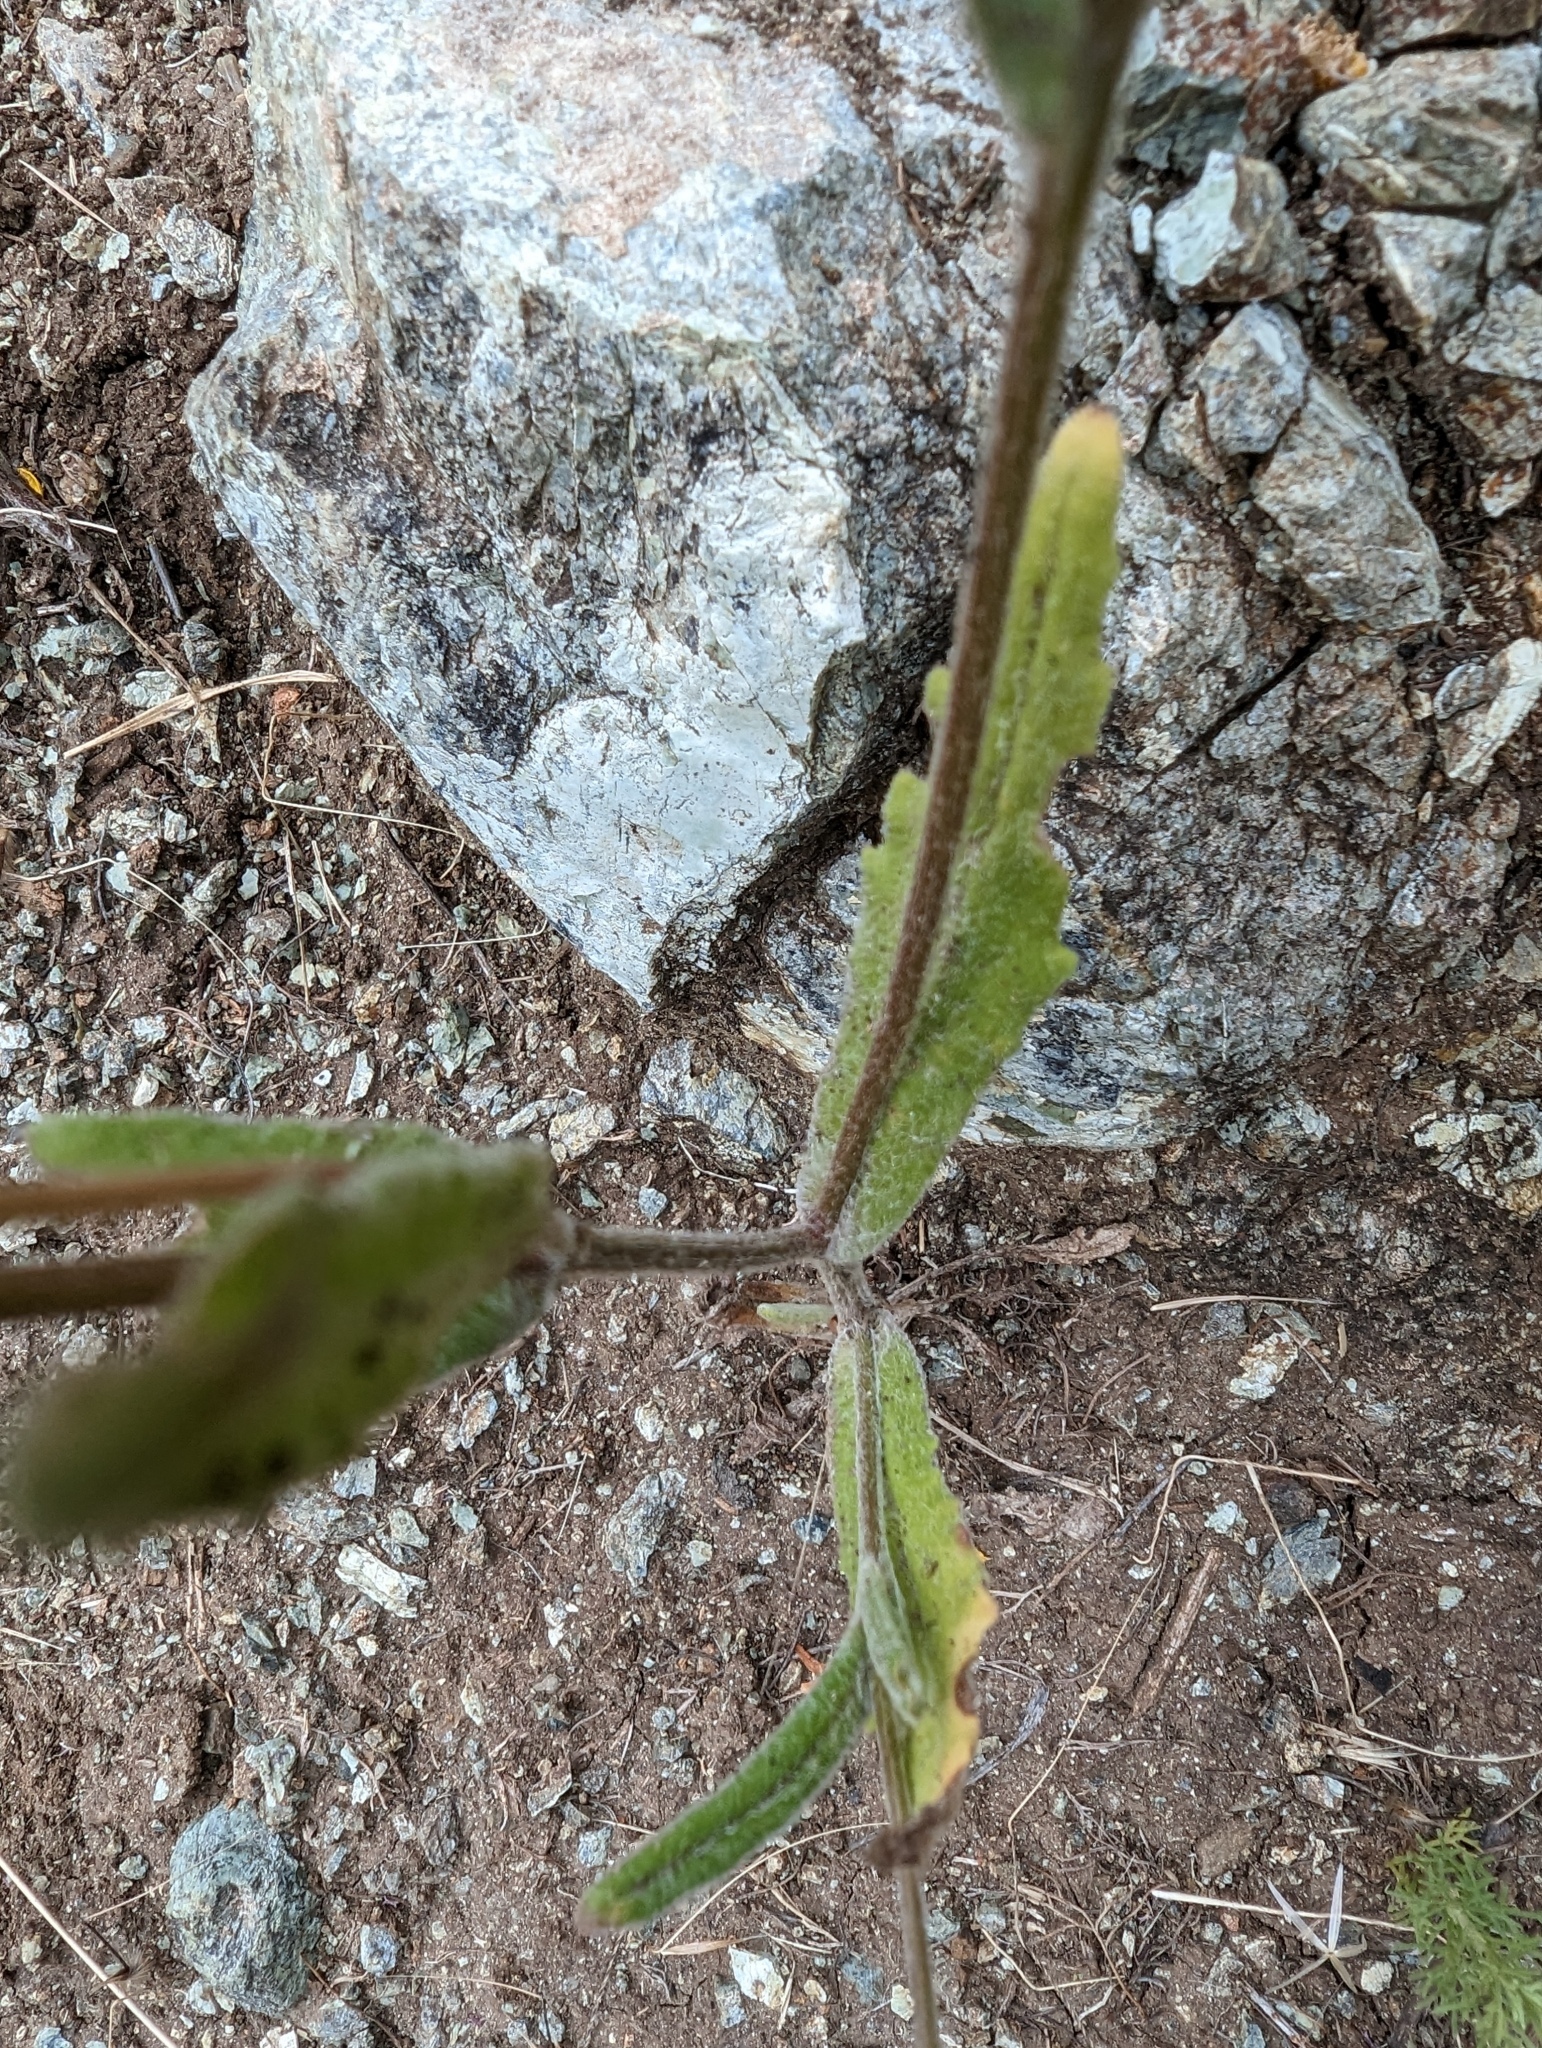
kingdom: Plantae
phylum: Tracheophyta
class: Magnoliopsida
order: Asterales
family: Asteraceae
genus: Monolopia
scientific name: Monolopia gracilens
